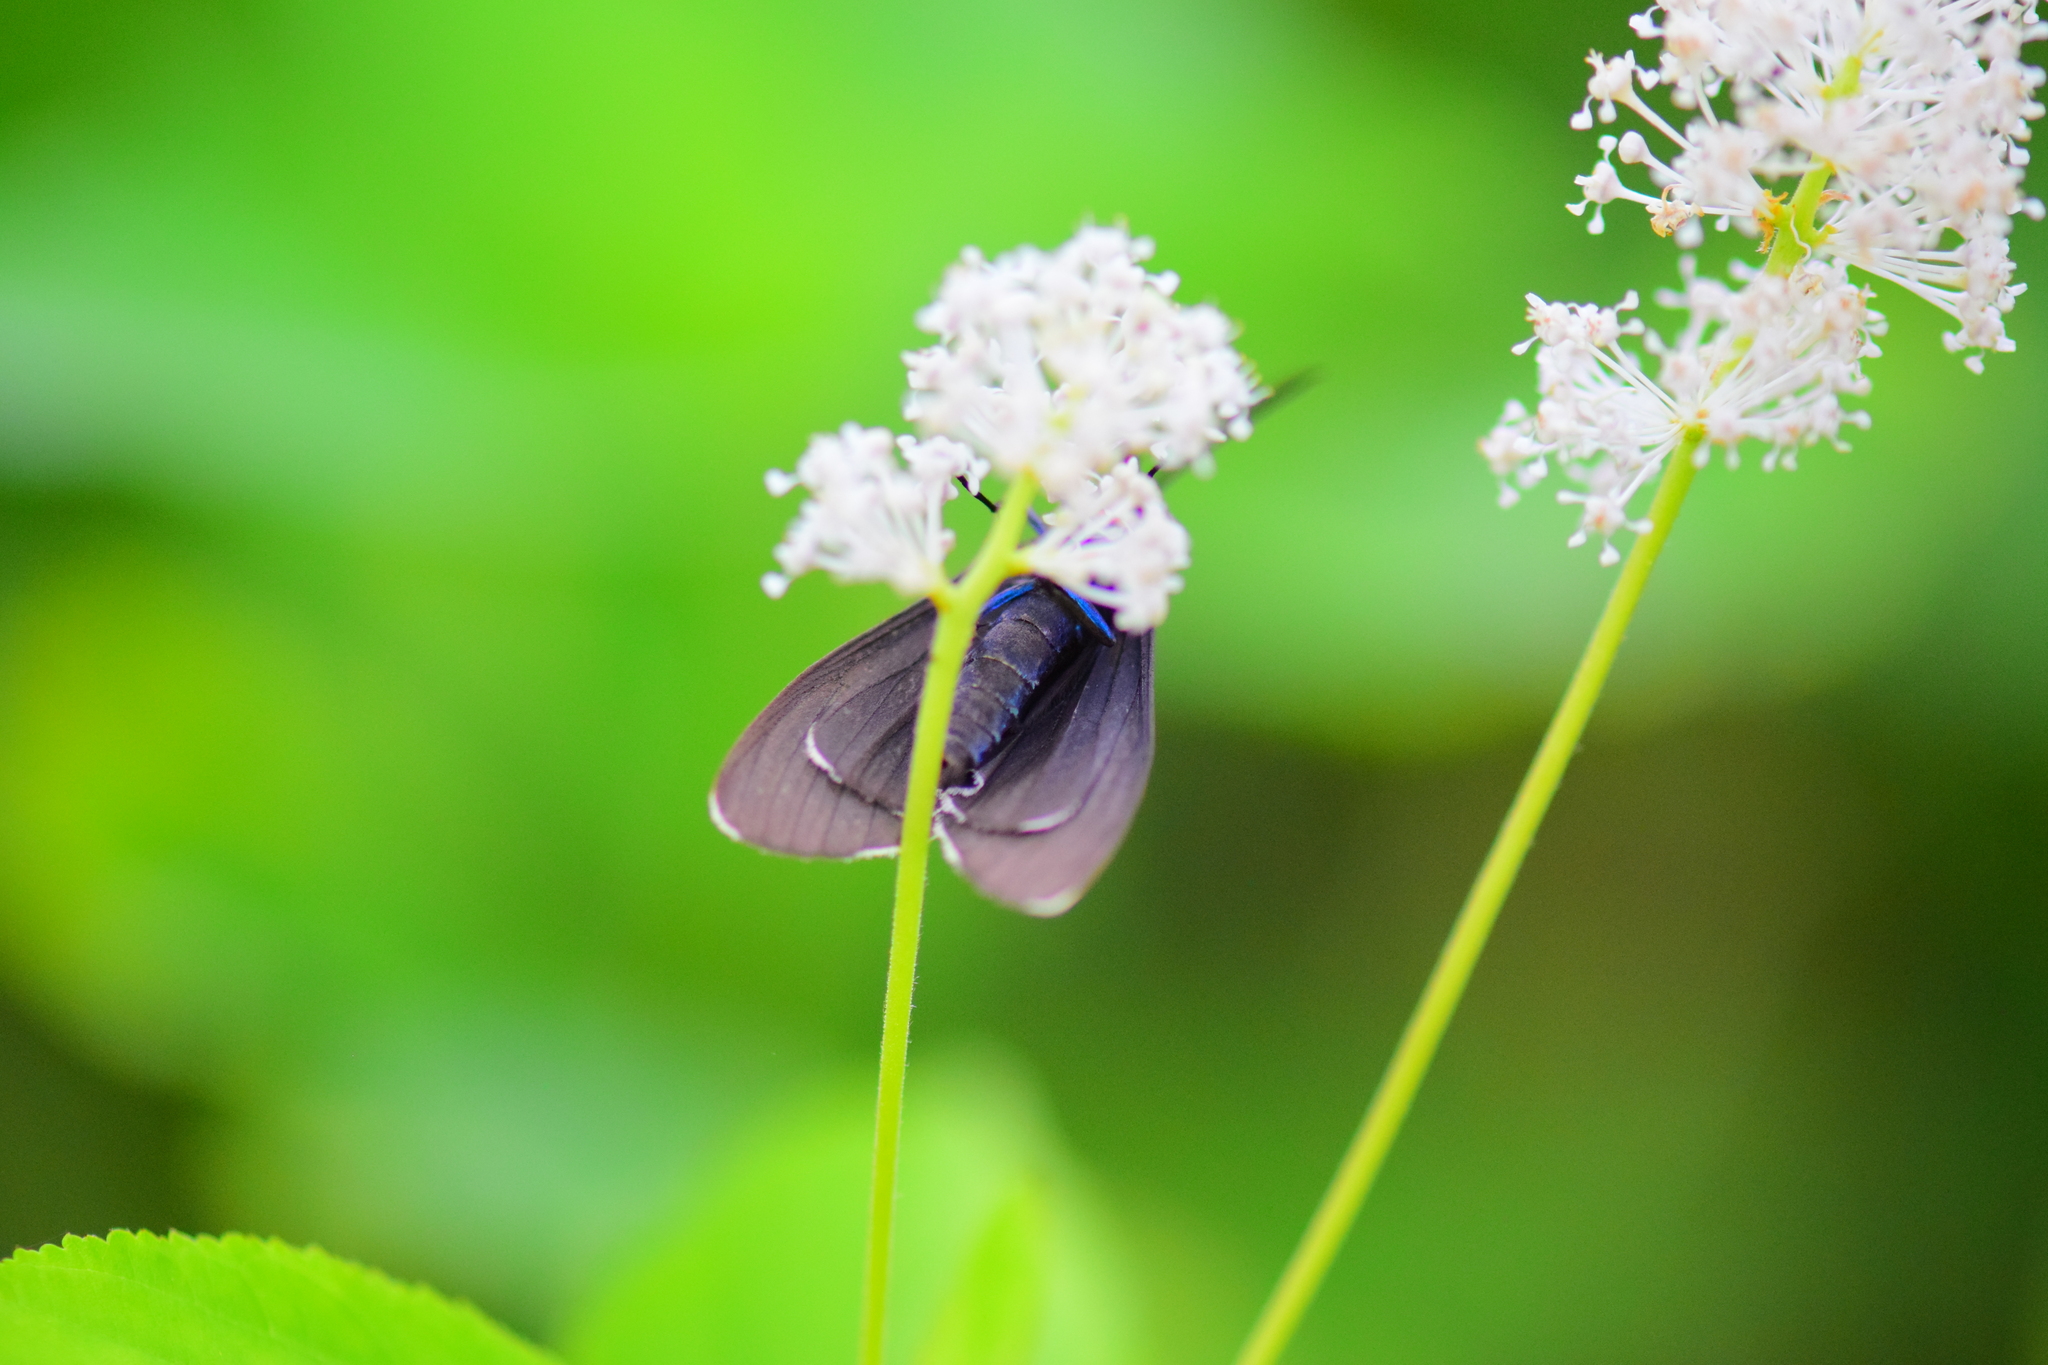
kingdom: Animalia
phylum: Arthropoda
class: Insecta
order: Lepidoptera
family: Erebidae
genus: Ctenucha
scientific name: Ctenucha virginica
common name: Virginia ctenucha moth
